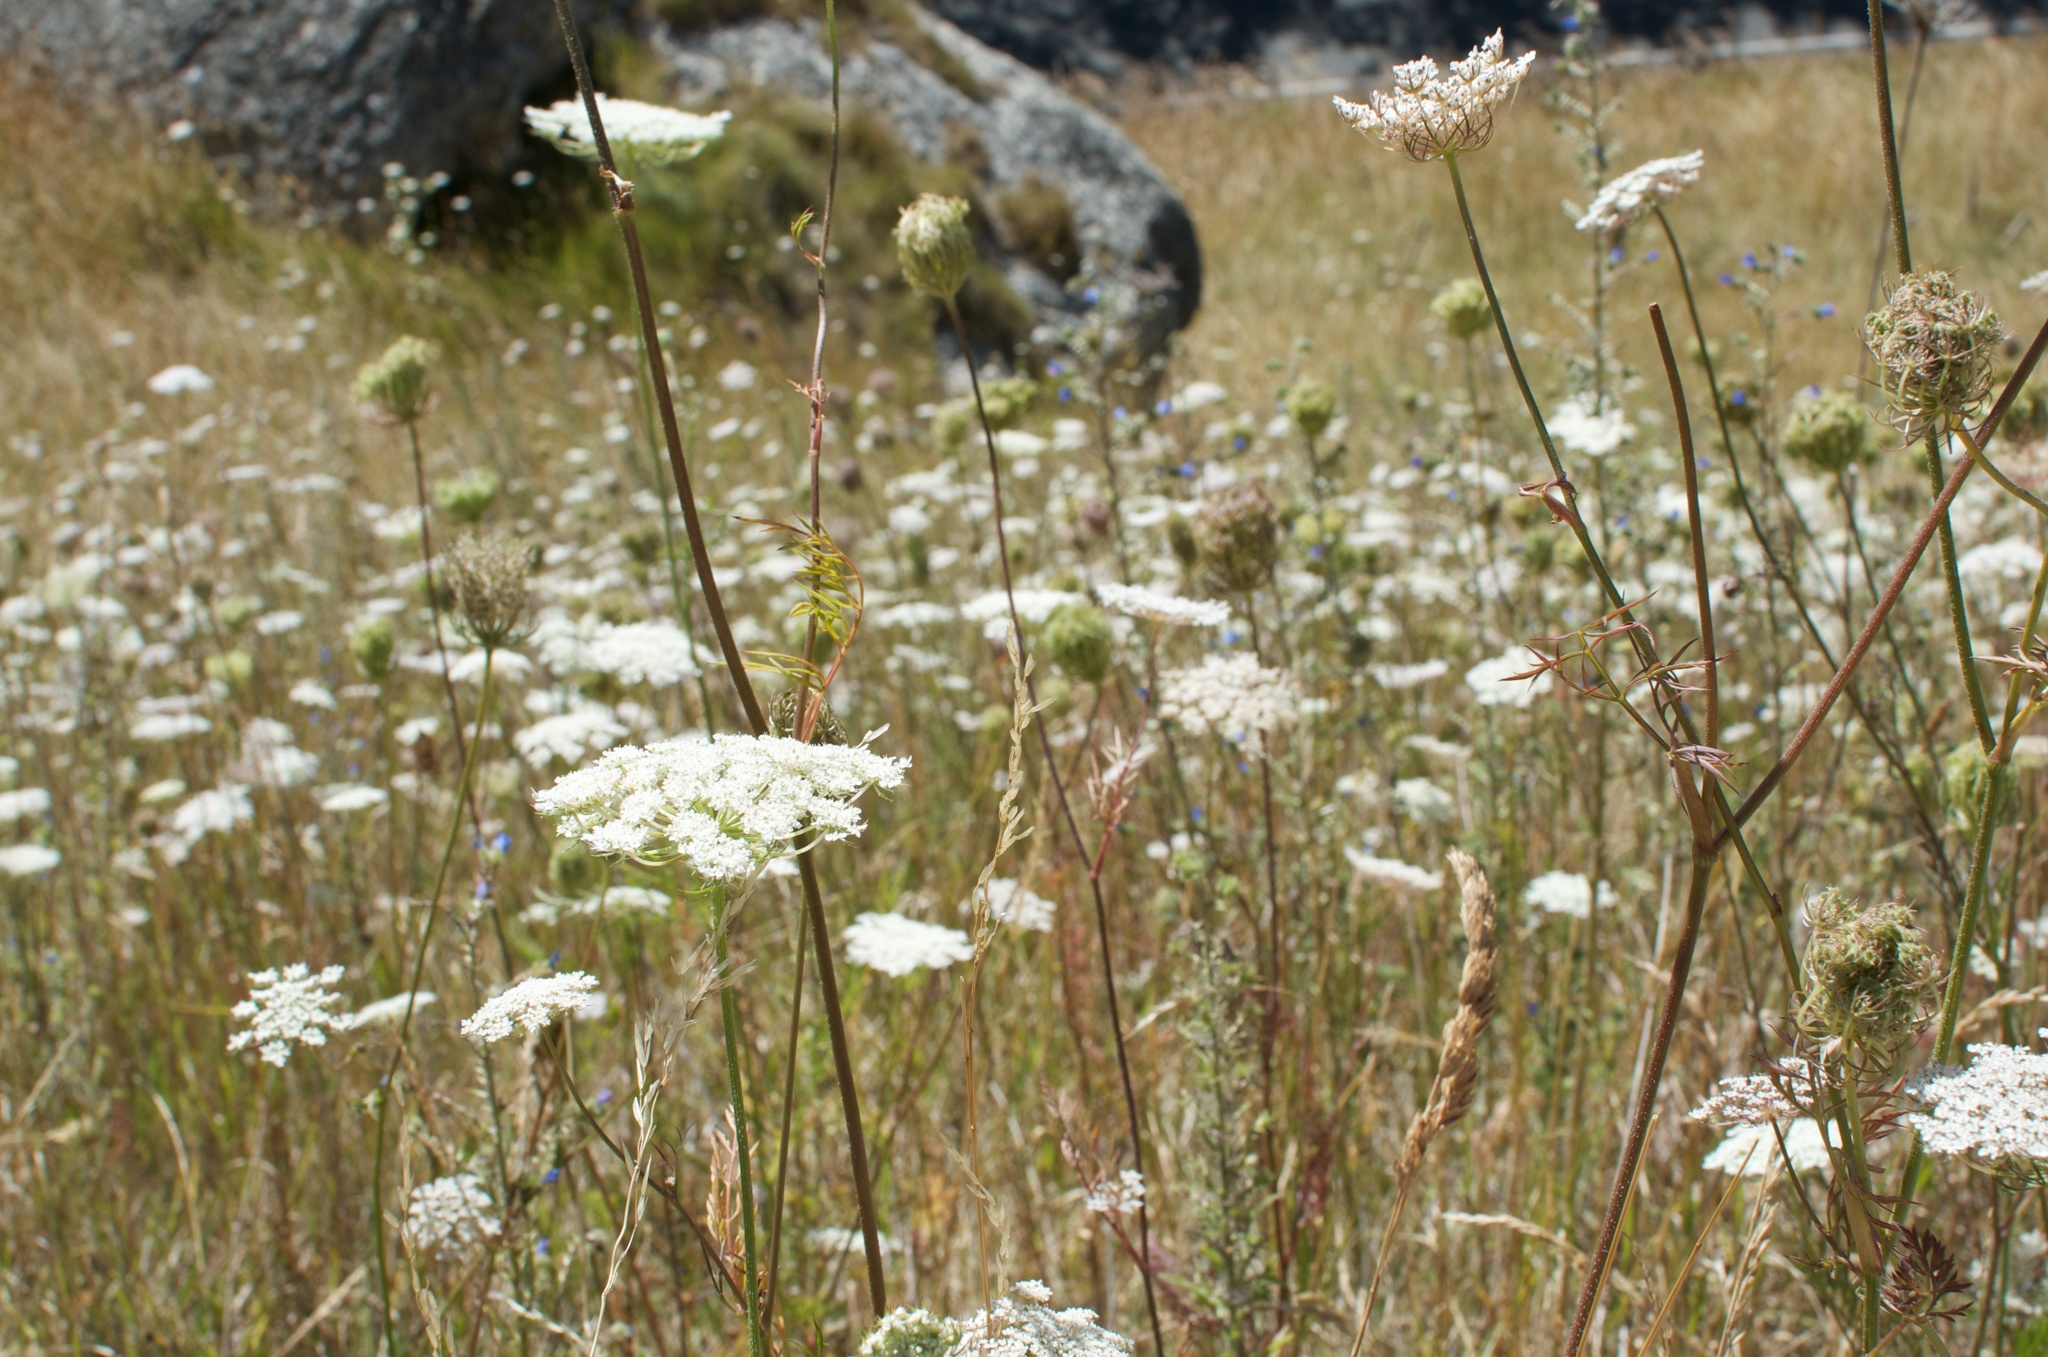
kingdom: Plantae
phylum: Tracheophyta
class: Magnoliopsida
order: Apiales
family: Apiaceae
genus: Daucus
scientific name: Daucus carota
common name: Wild carrot
